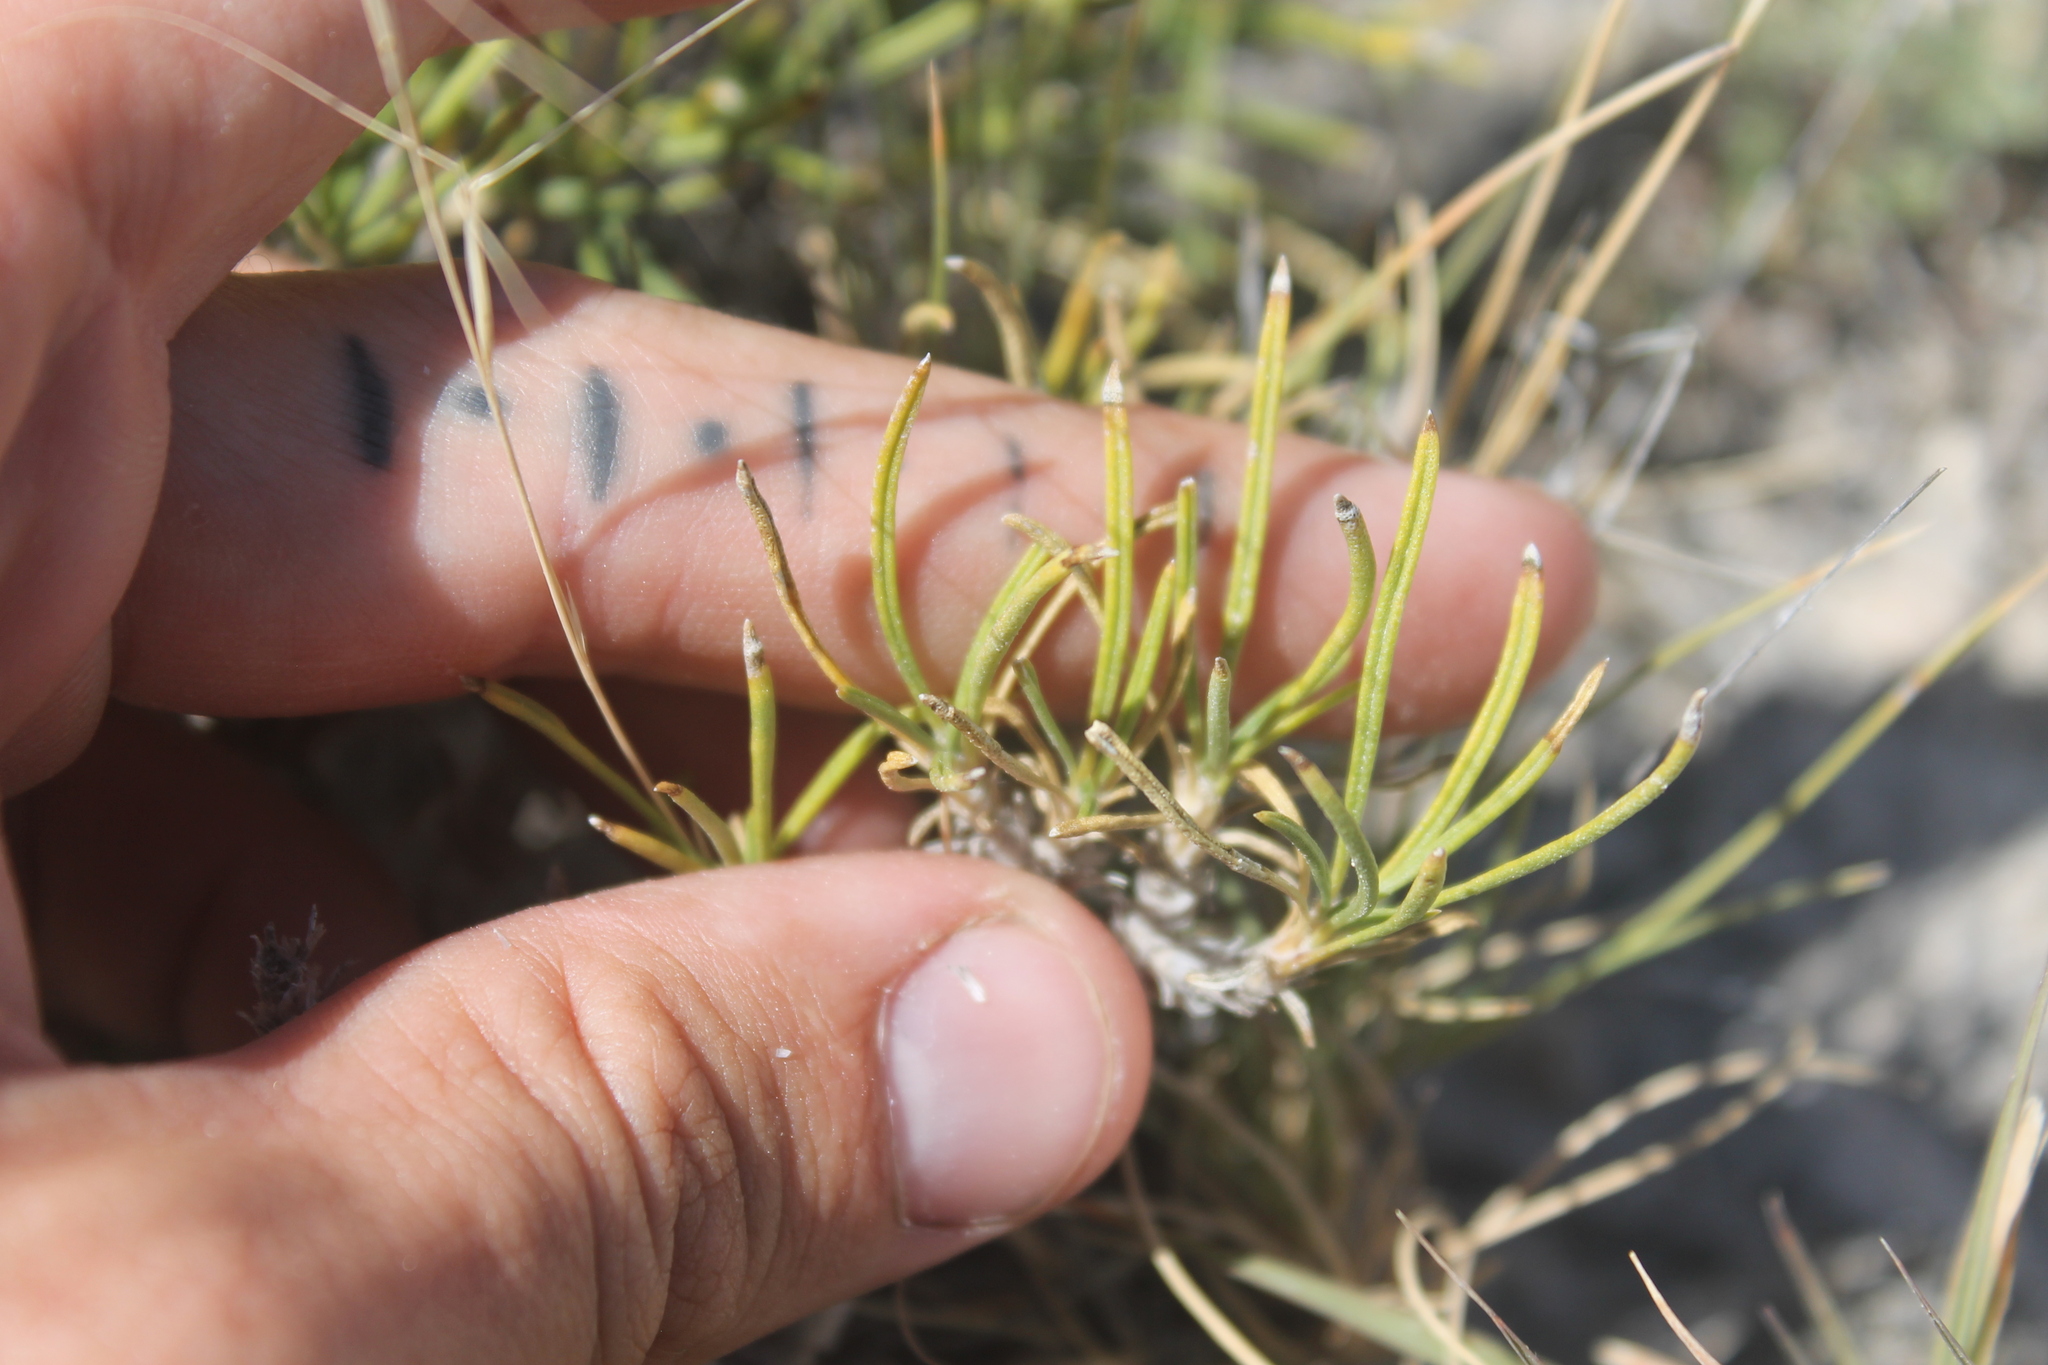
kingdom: Plantae
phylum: Tracheophyta
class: Magnoliopsida
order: Asterales
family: Asteraceae
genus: Tetraneuris
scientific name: Tetraneuris scaposa
